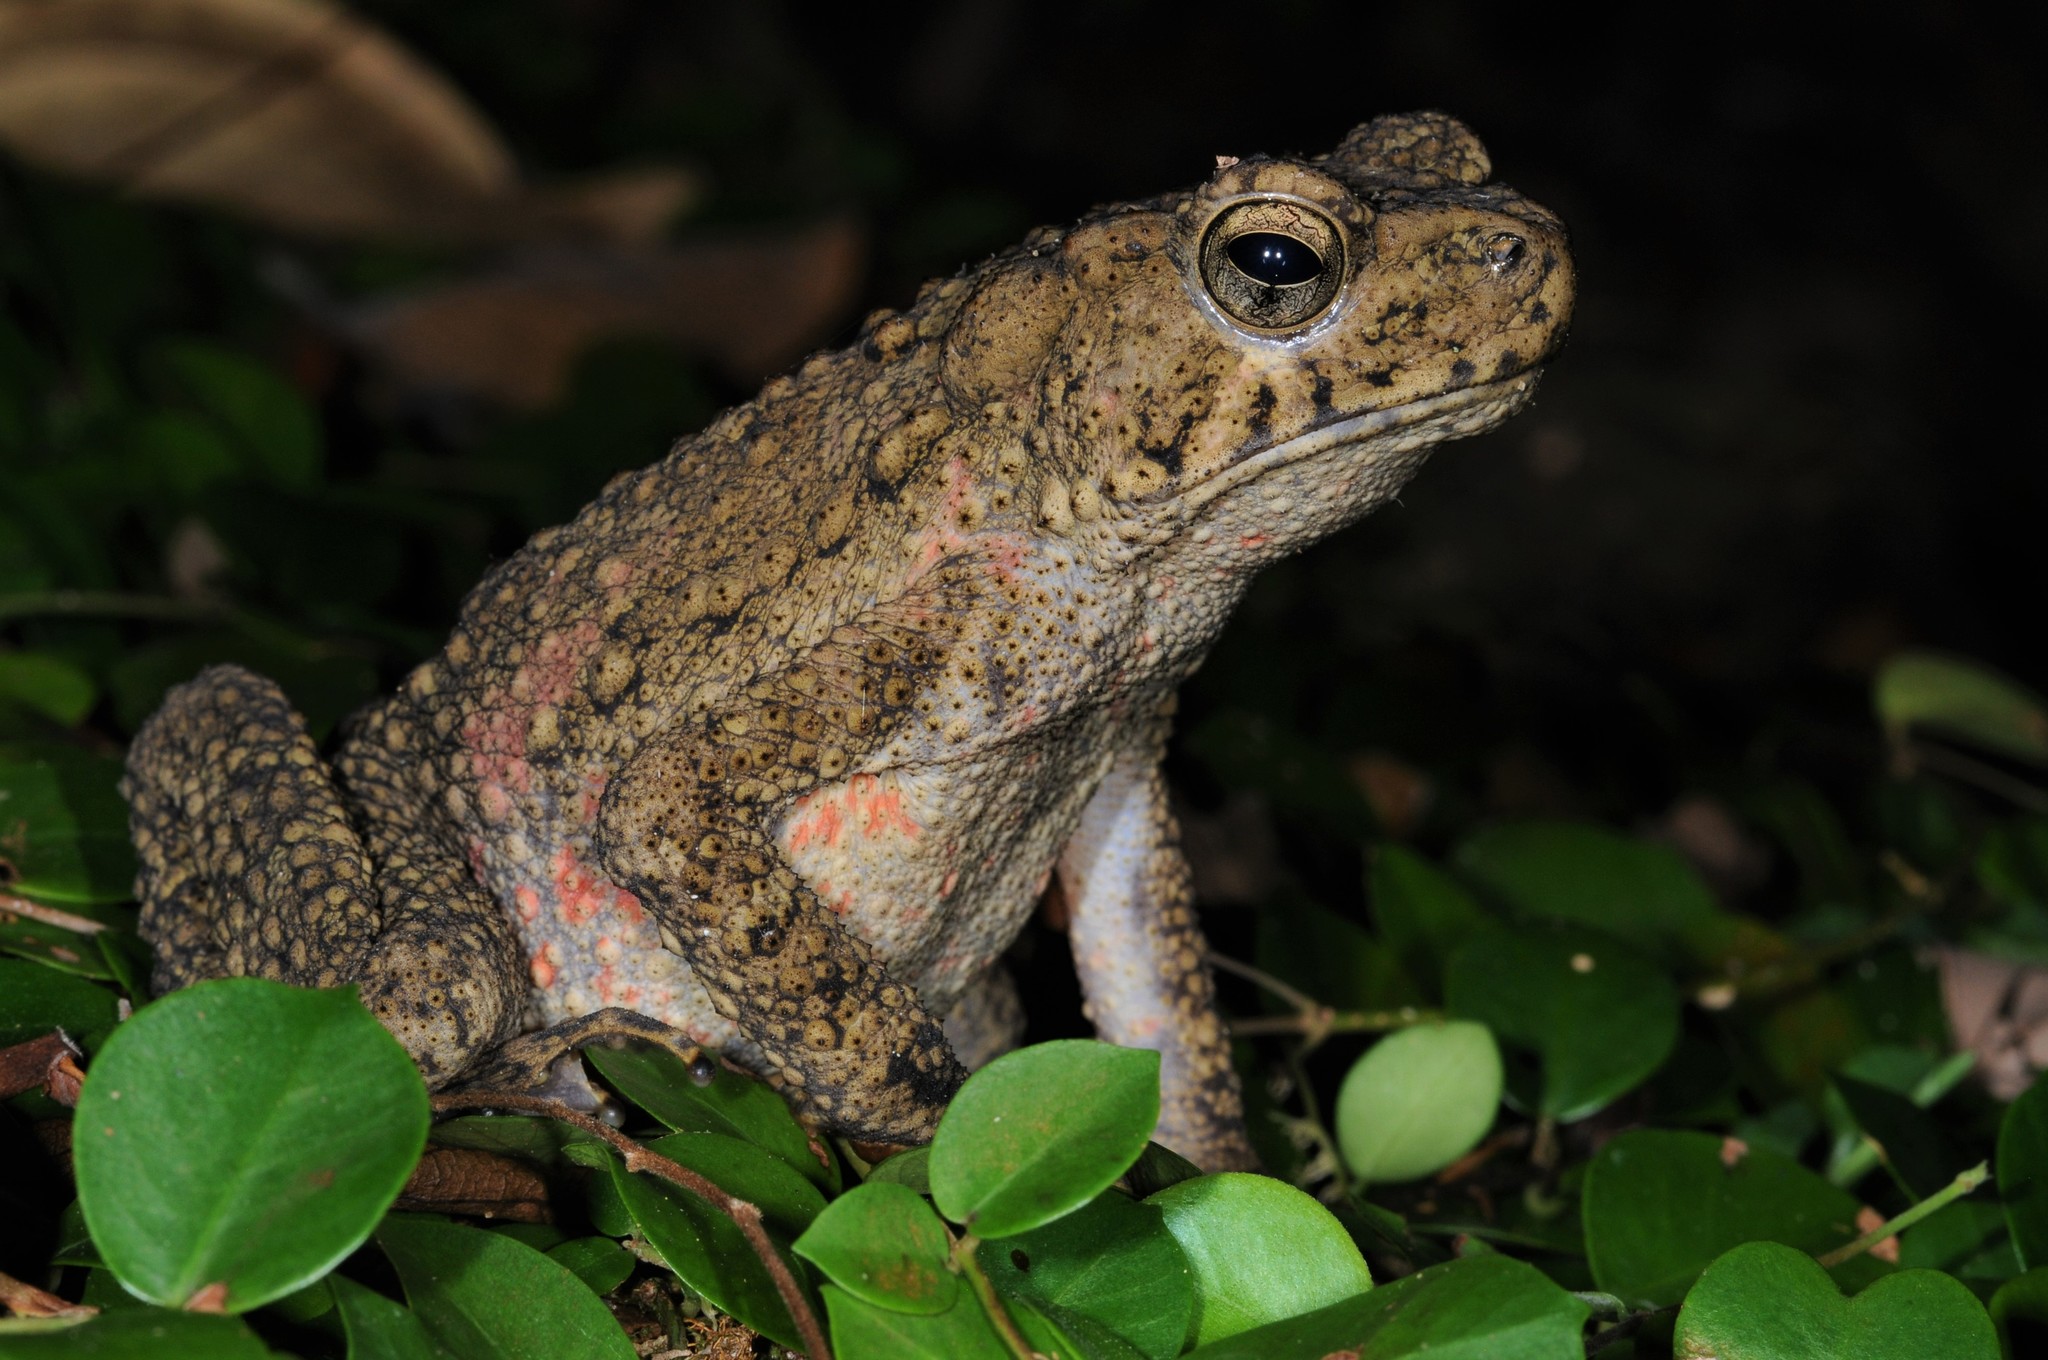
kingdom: Animalia
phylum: Chordata
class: Amphibia
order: Anura
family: Bufonidae
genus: Phrynoidis
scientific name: Phrynoidis asper
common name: Asian giant toad
